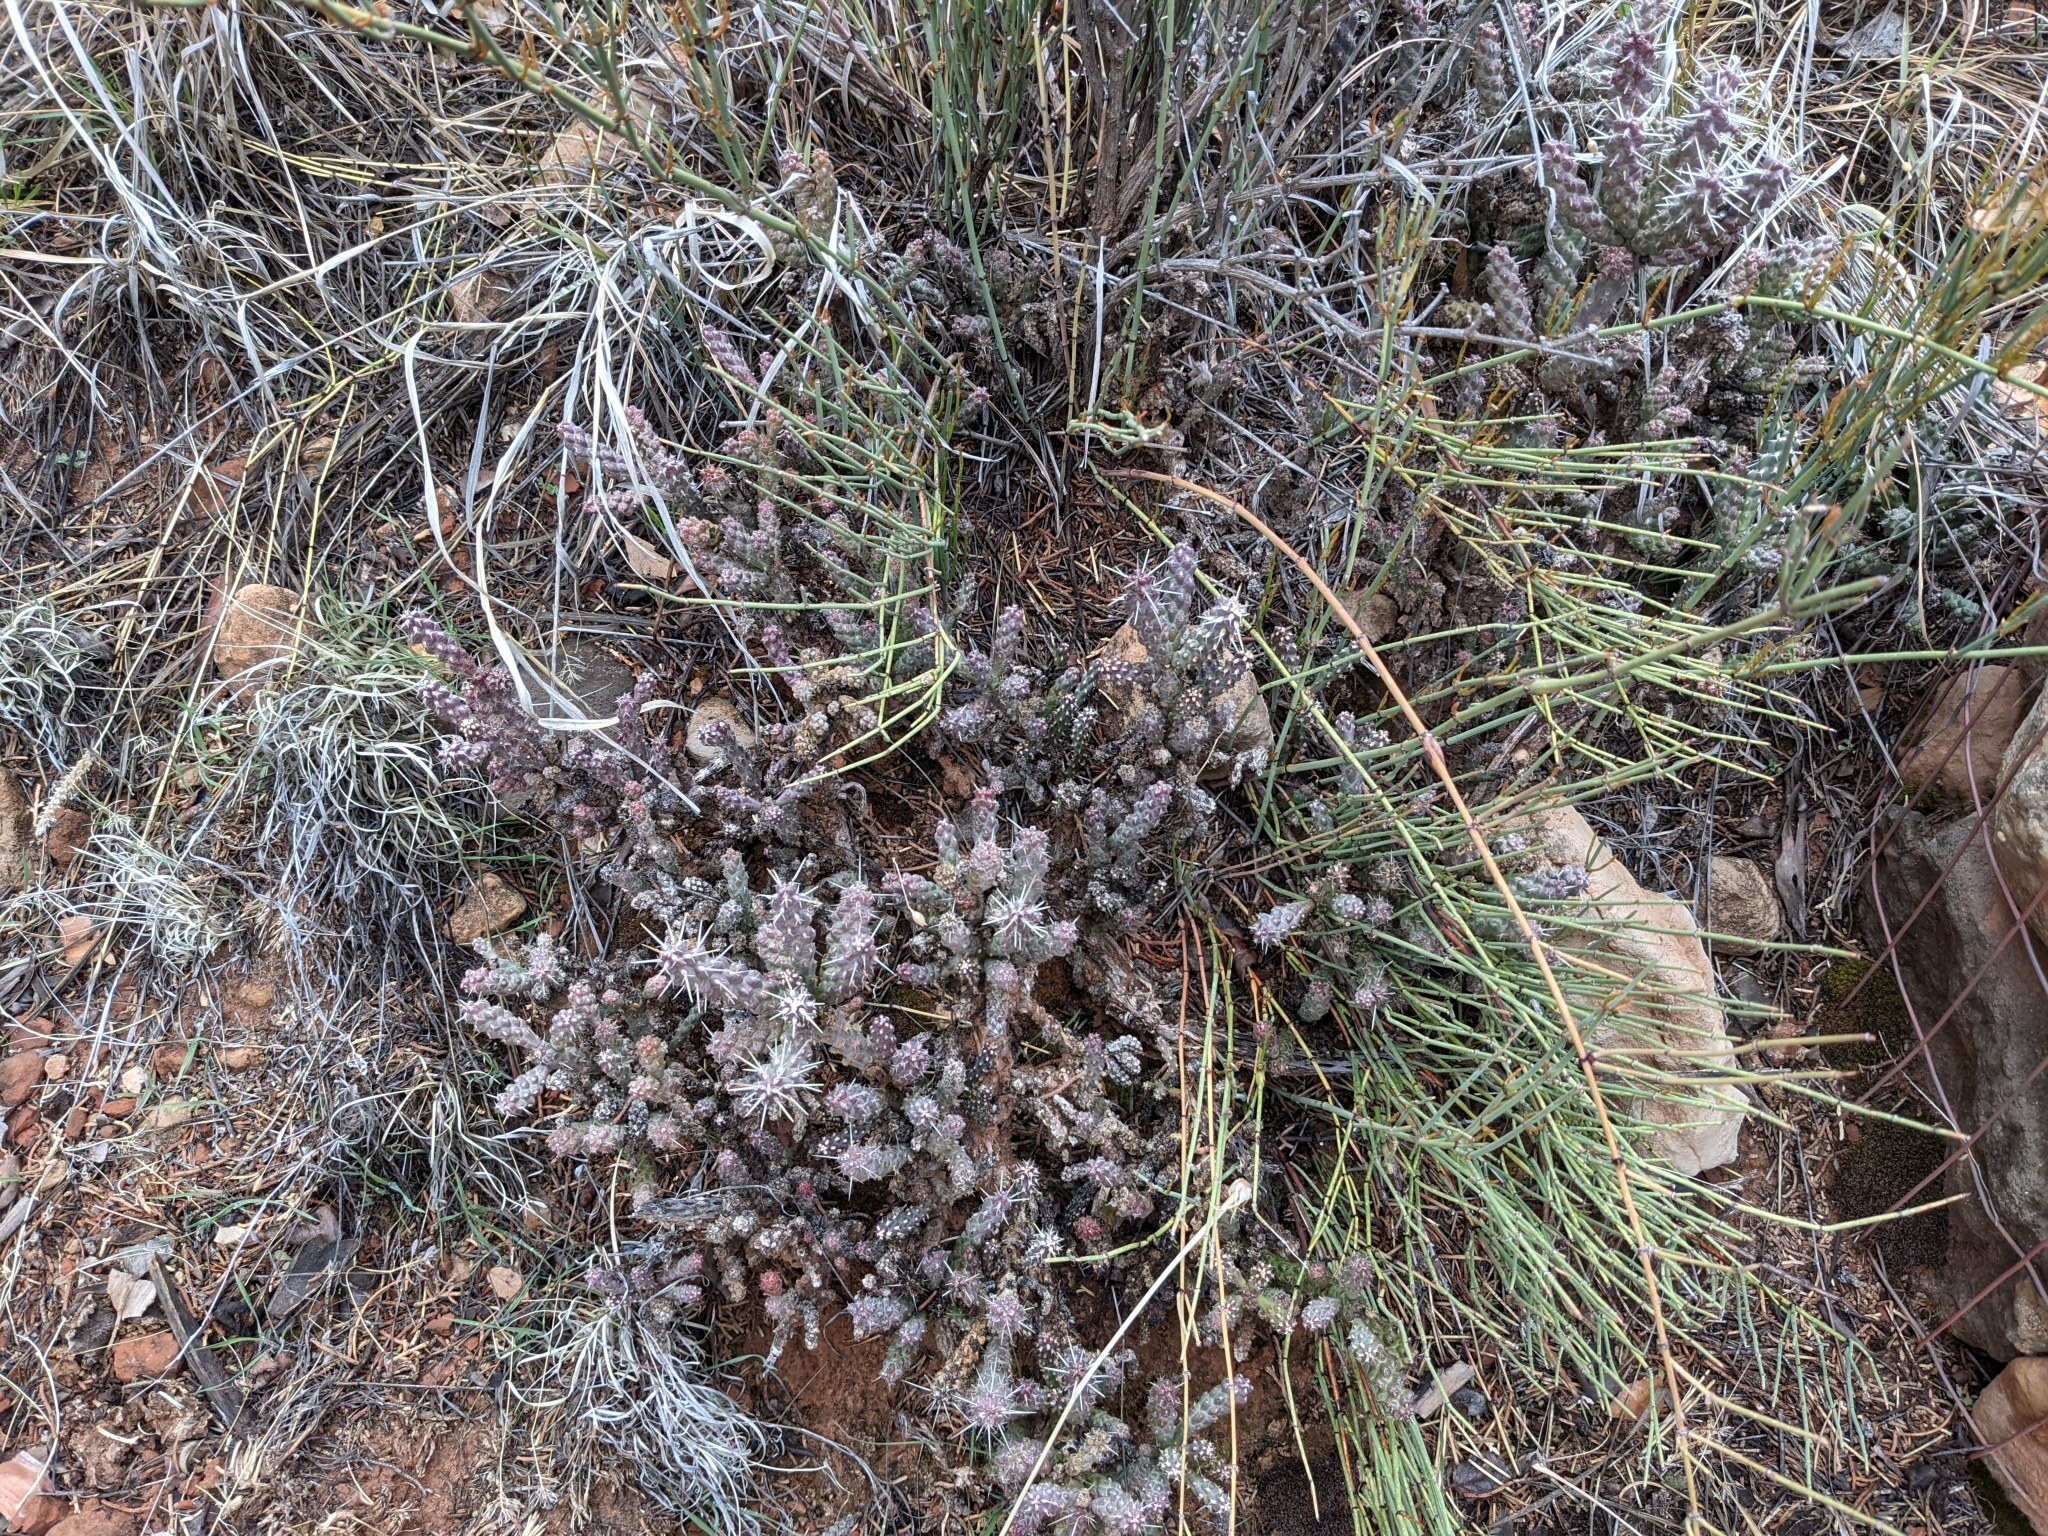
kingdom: Plantae
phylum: Tracheophyta
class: Magnoliopsida
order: Caryophyllales
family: Cactaceae
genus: Cylindropuntia
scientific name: Cylindropuntia whipplei
